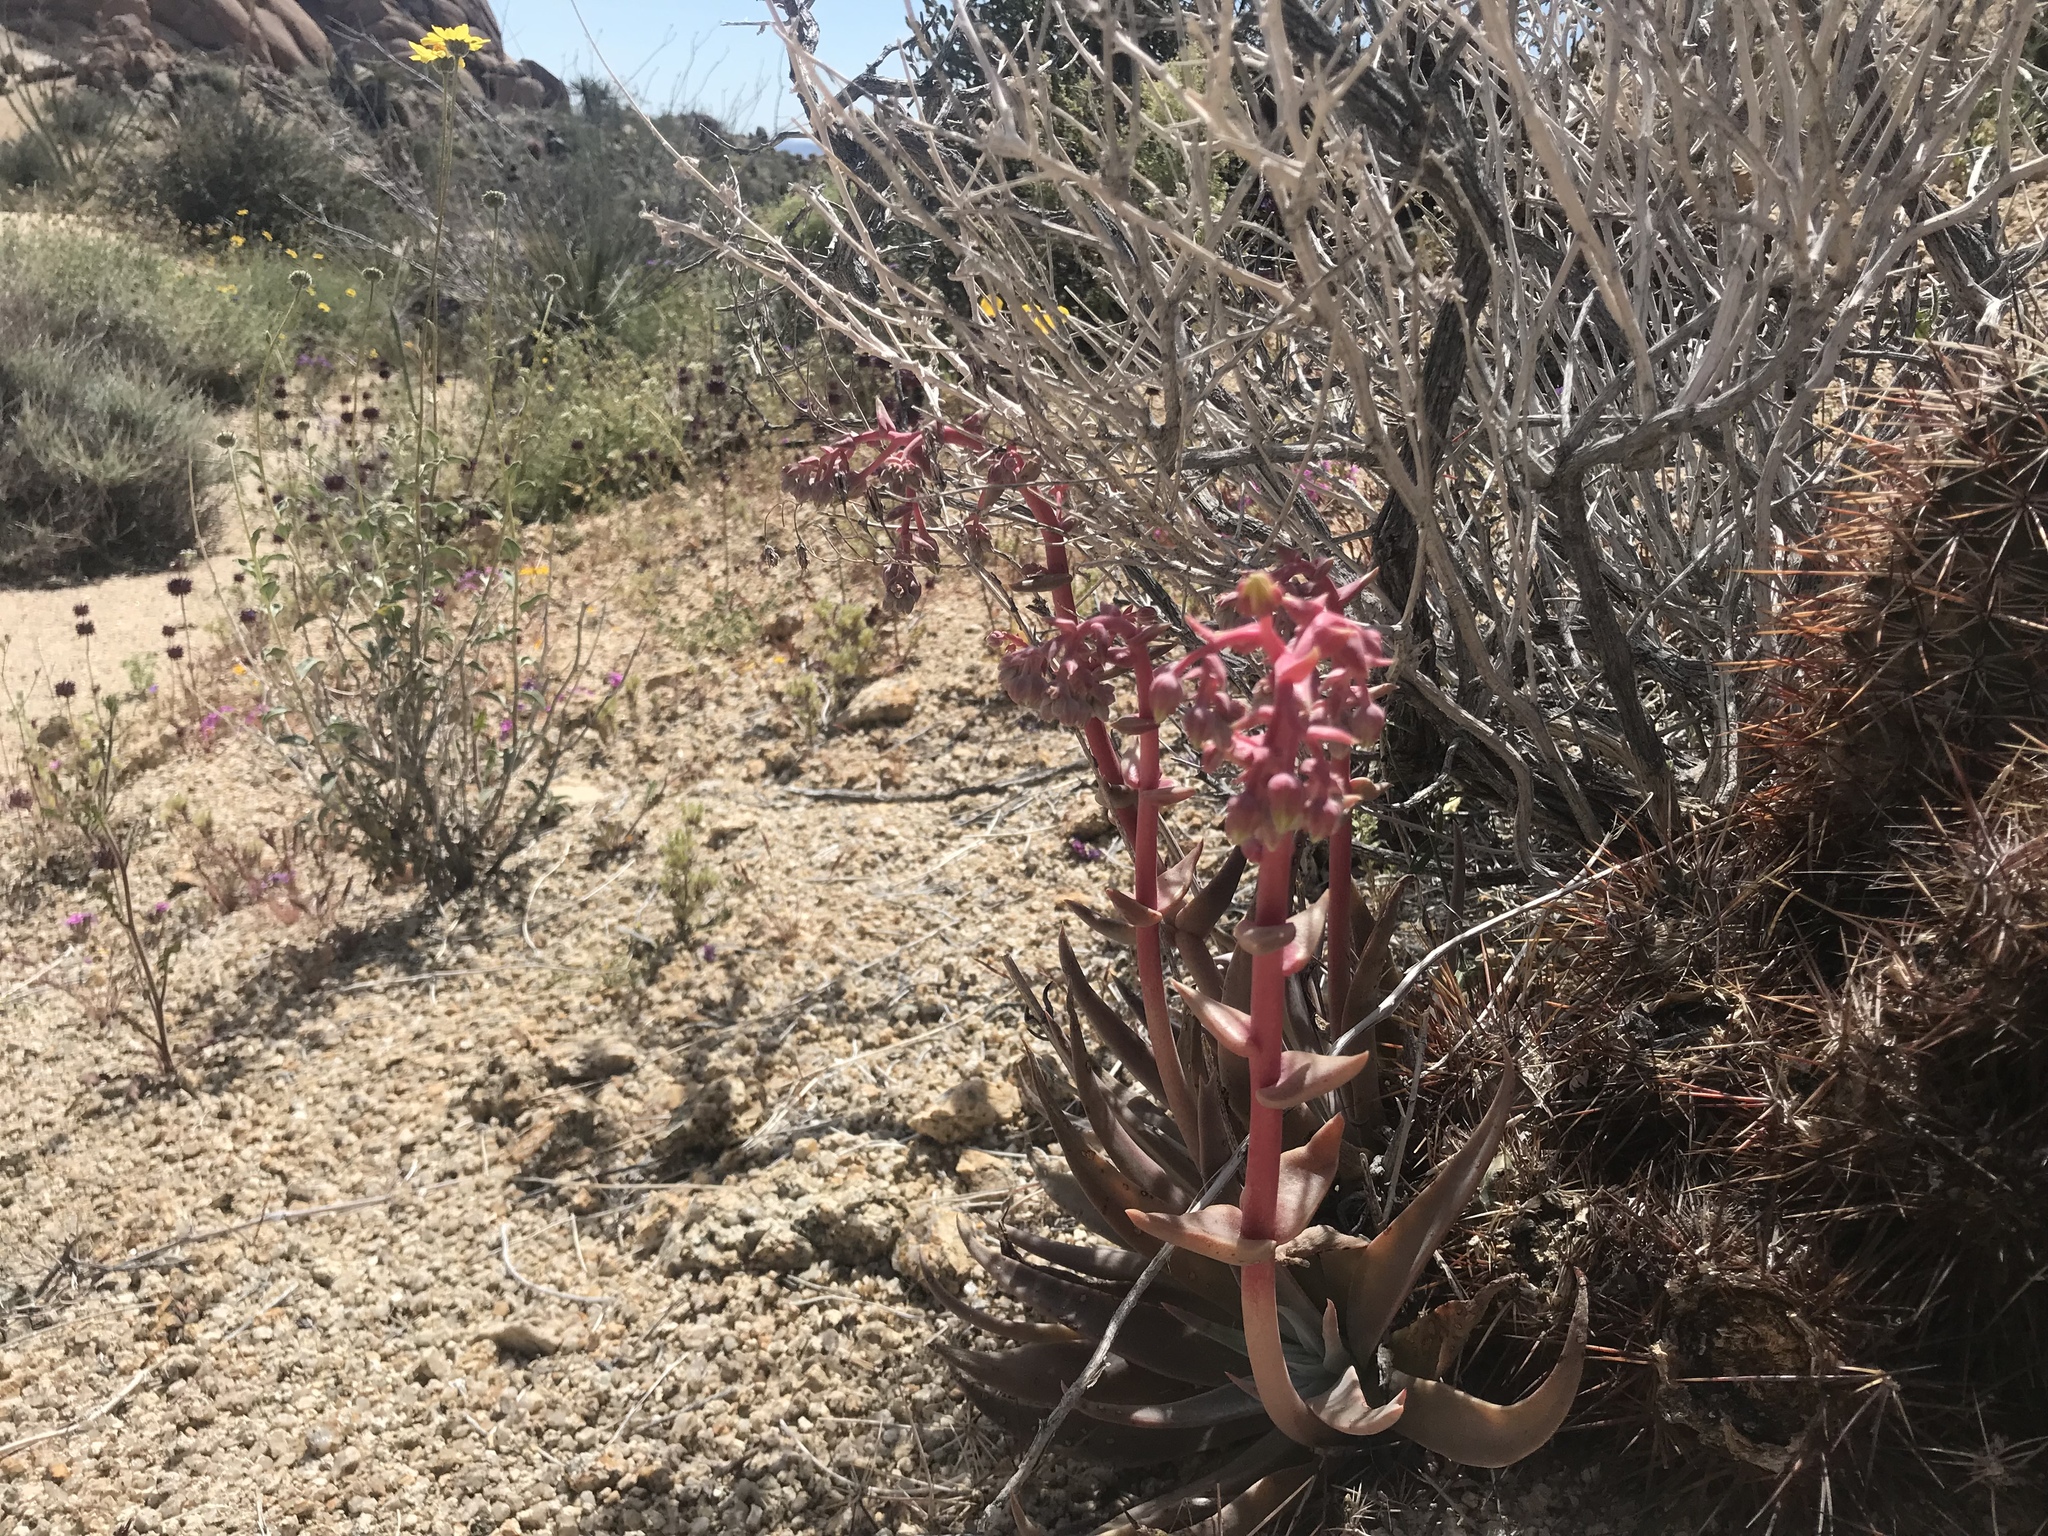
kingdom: Plantae
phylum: Tracheophyta
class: Magnoliopsida
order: Saxifragales
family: Crassulaceae
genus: Dudleya
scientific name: Dudleya saxosa
